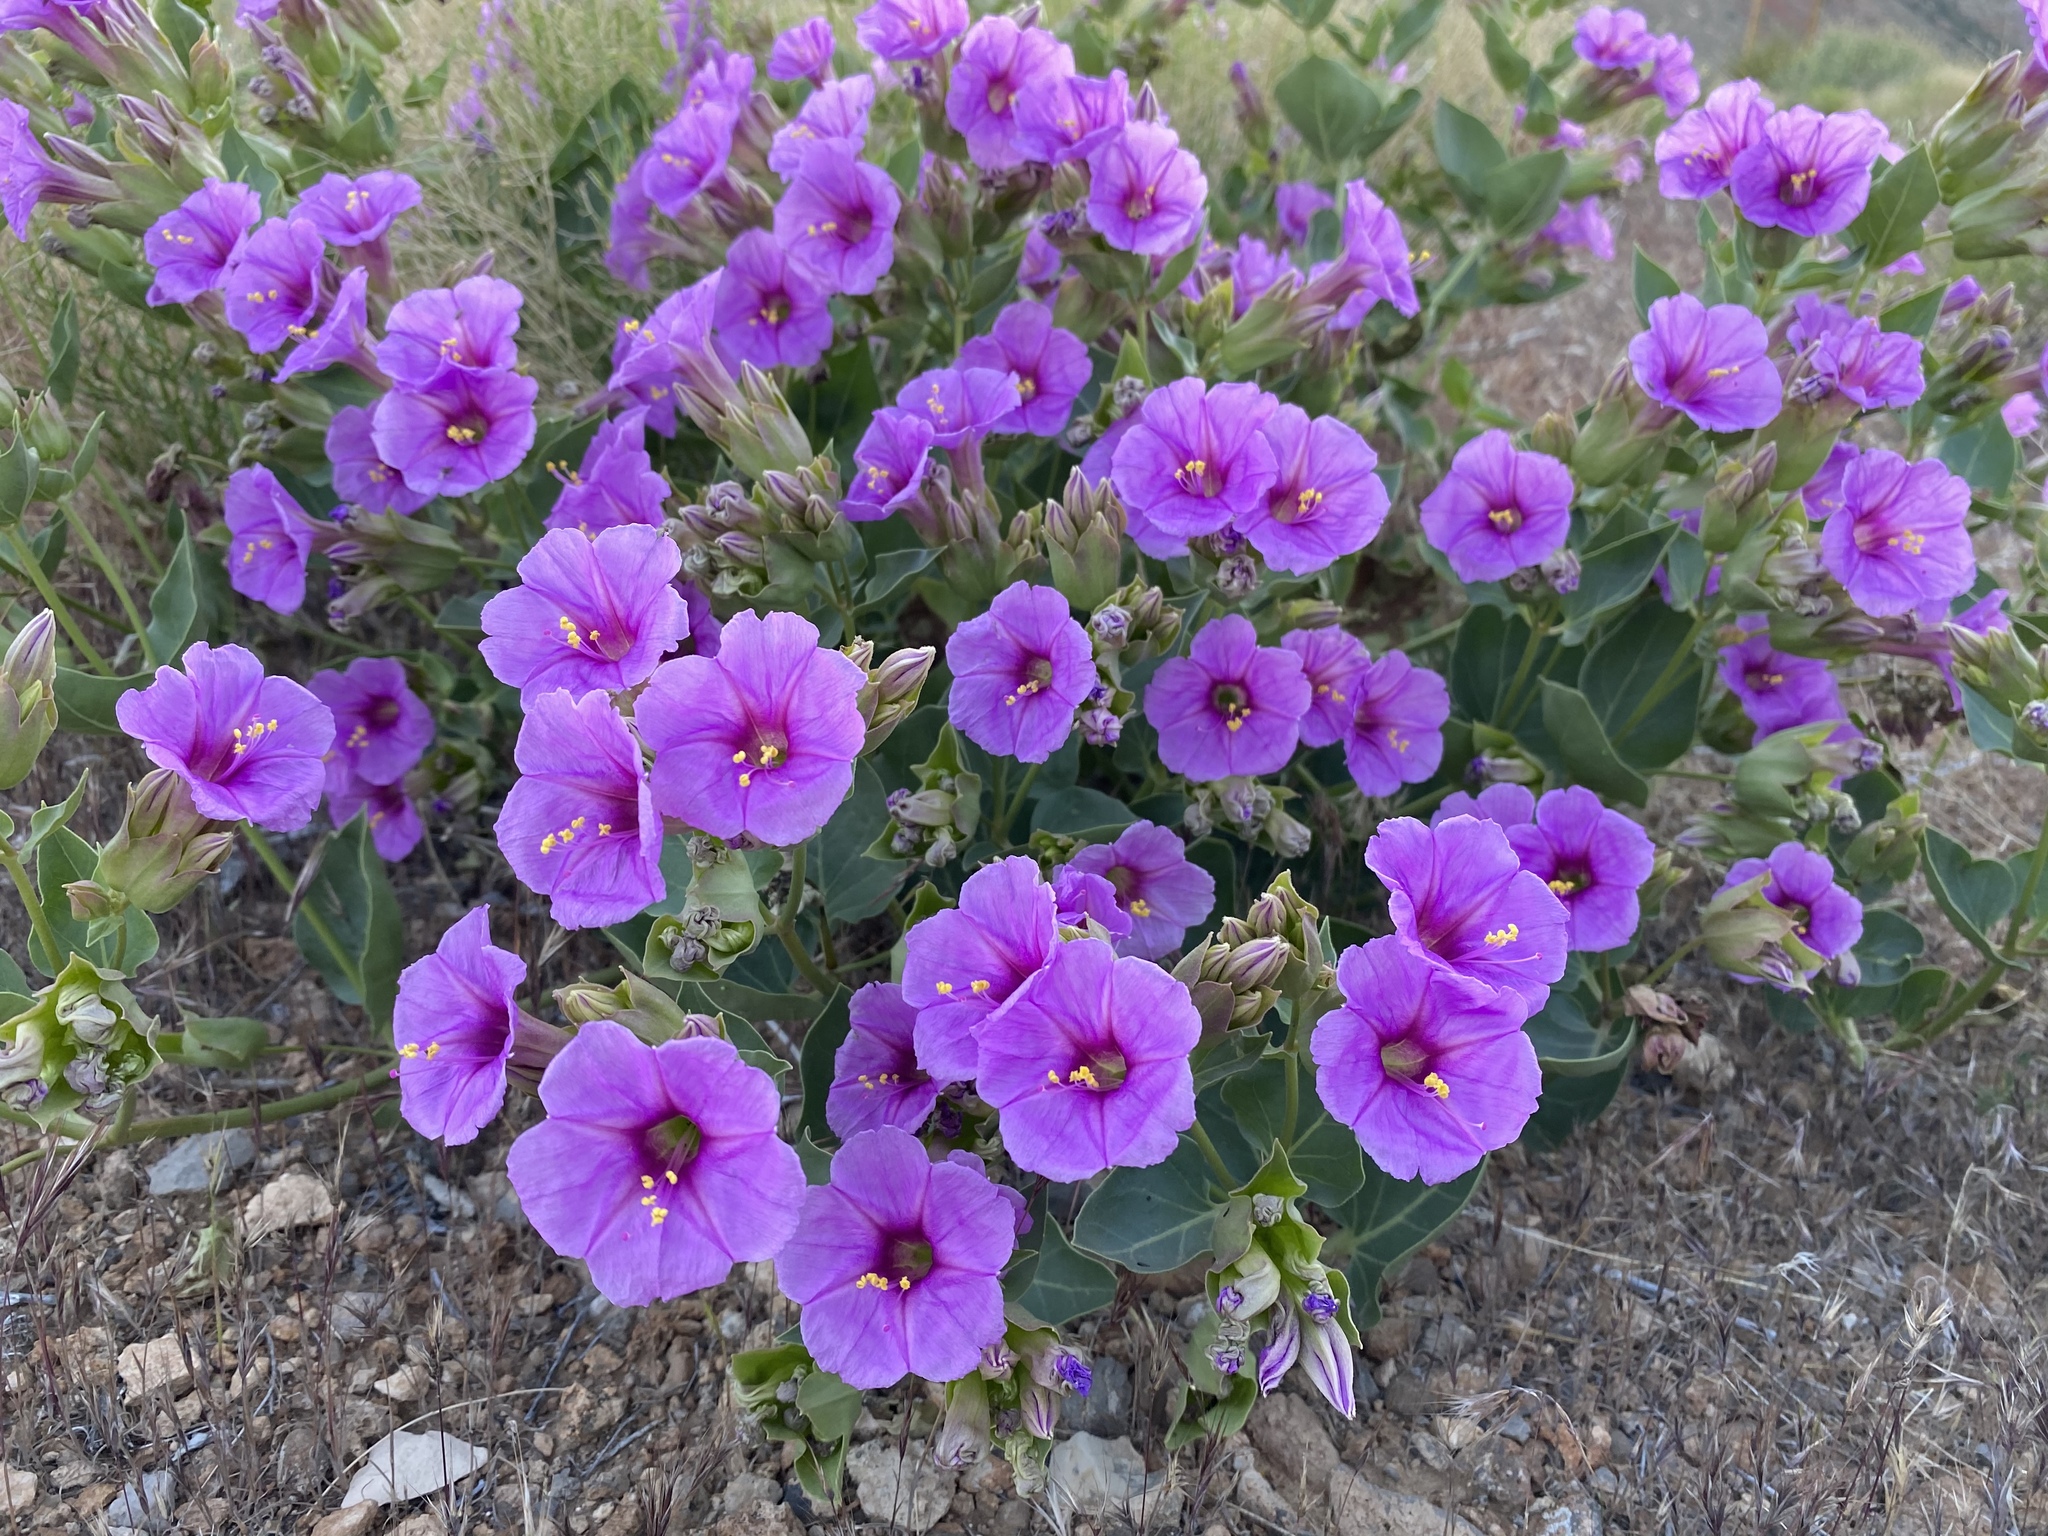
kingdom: Plantae
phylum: Tracheophyta
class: Magnoliopsida
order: Caryophyllales
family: Nyctaginaceae
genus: Mirabilis
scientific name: Mirabilis multiflora
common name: Froebel's four-o'clock
